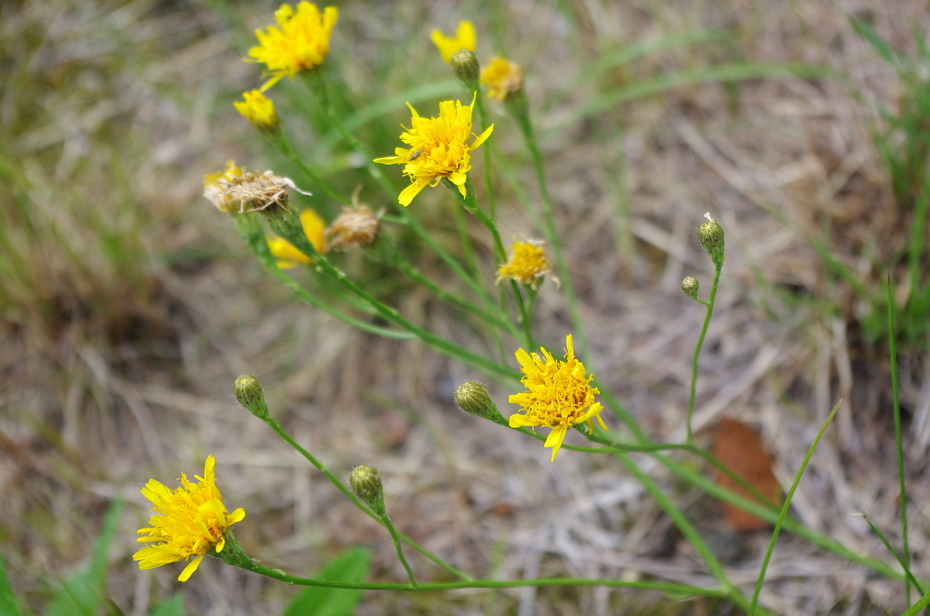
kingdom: Plantae
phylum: Tracheophyta
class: Magnoliopsida
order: Asterales
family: Asteraceae
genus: Scorzoneroides
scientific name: Scorzoneroides autumnalis
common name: Autumn hawkbit
